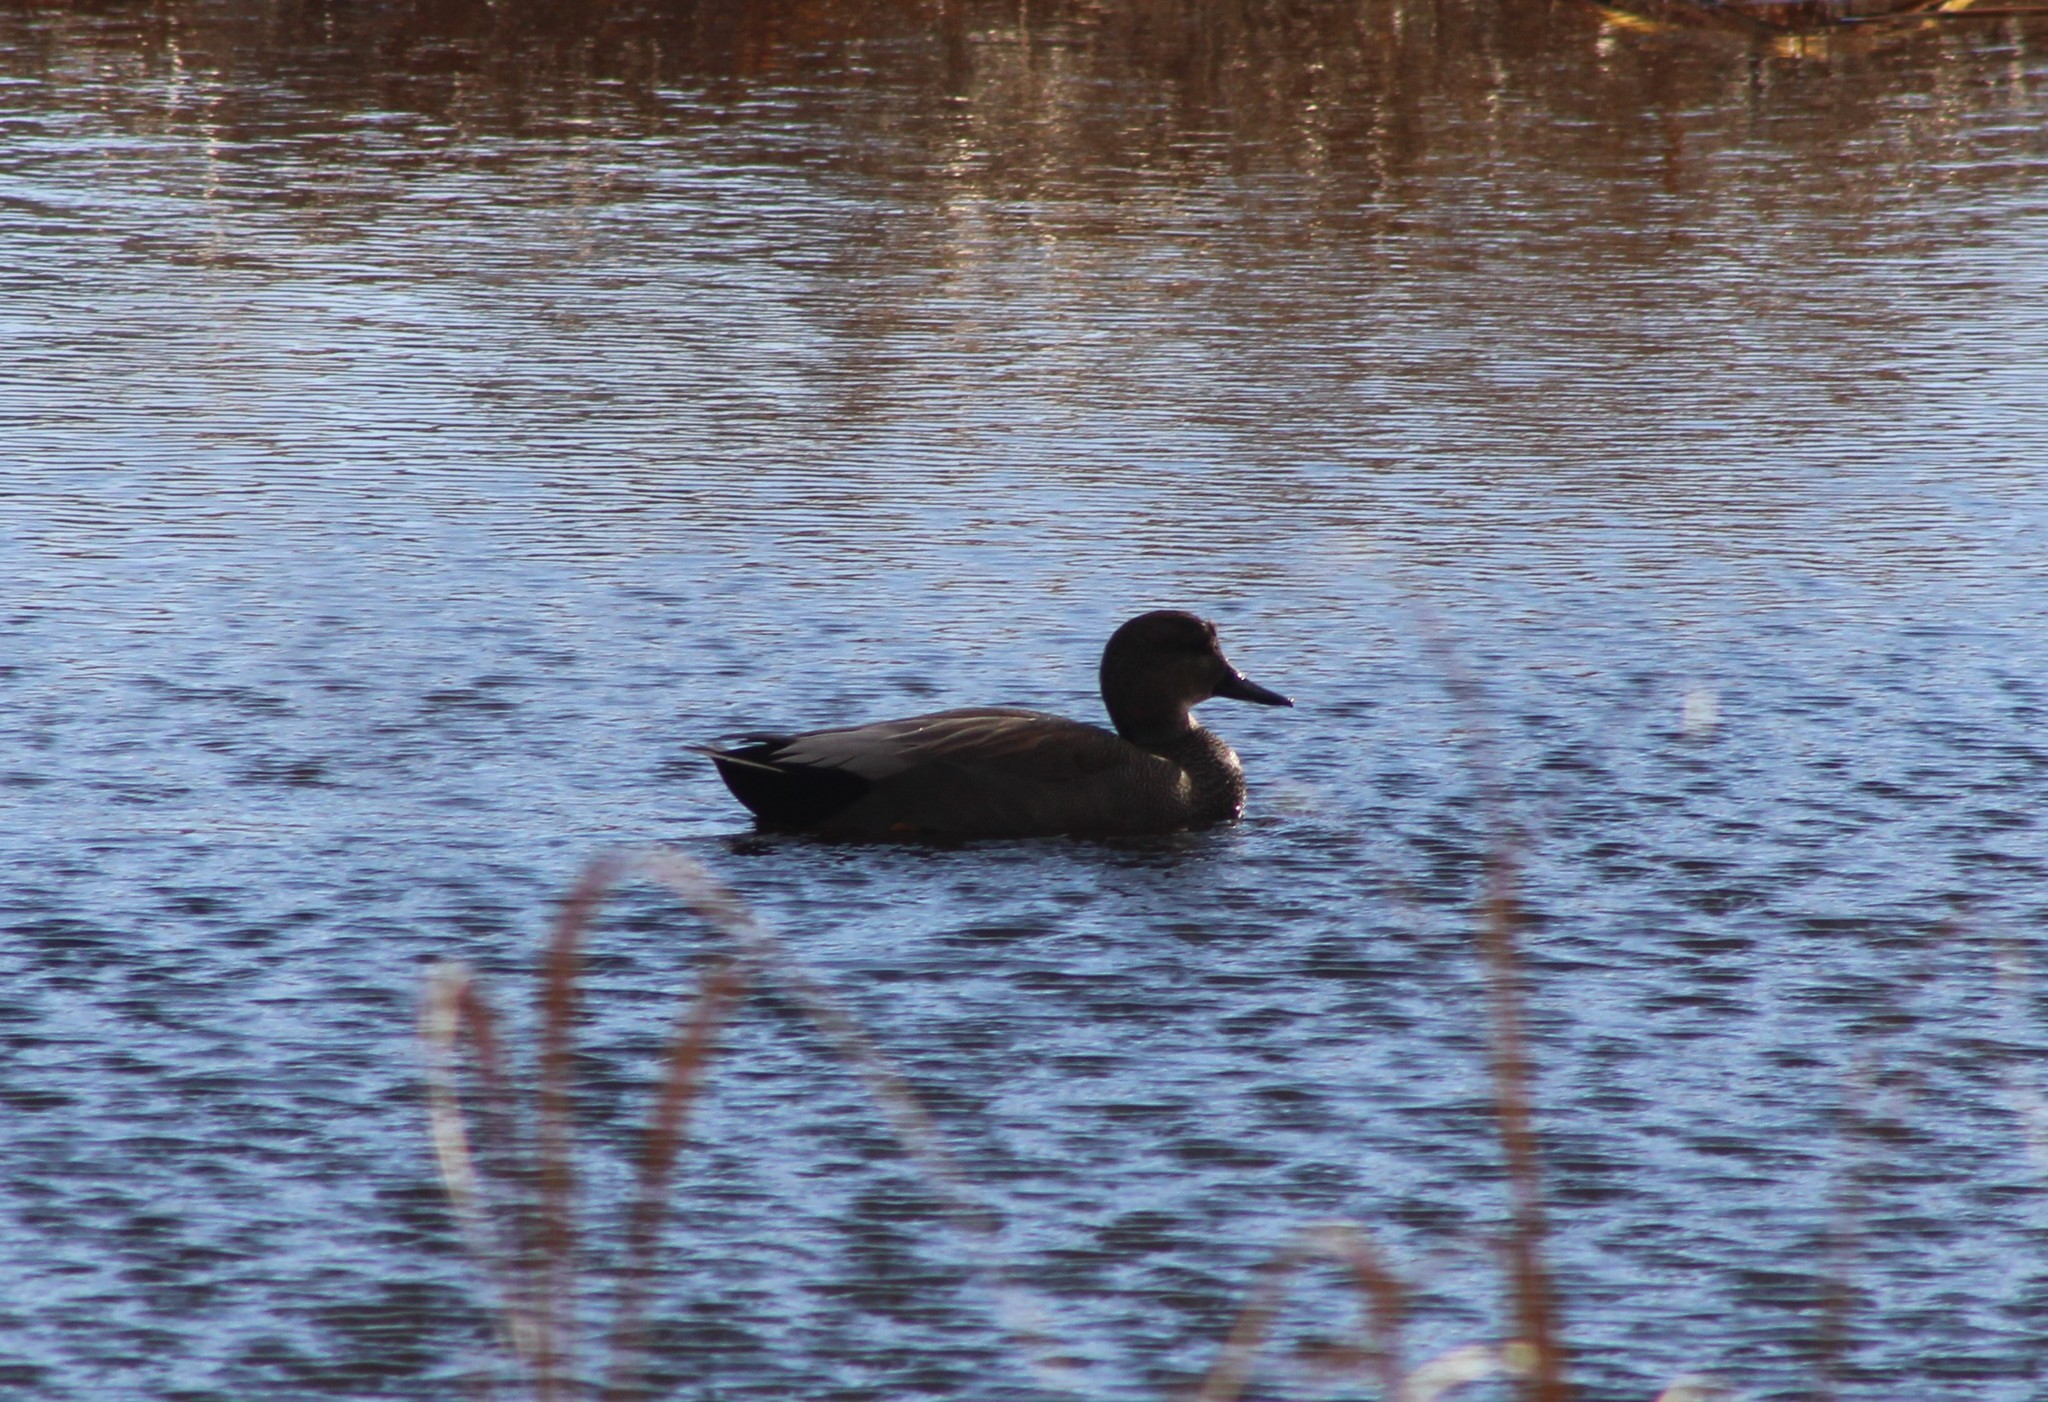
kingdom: Animalia
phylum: Chordata
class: Aves
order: Anseriformes
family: Anatidae
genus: Mareca
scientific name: Mareca strepera
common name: Gadwall
